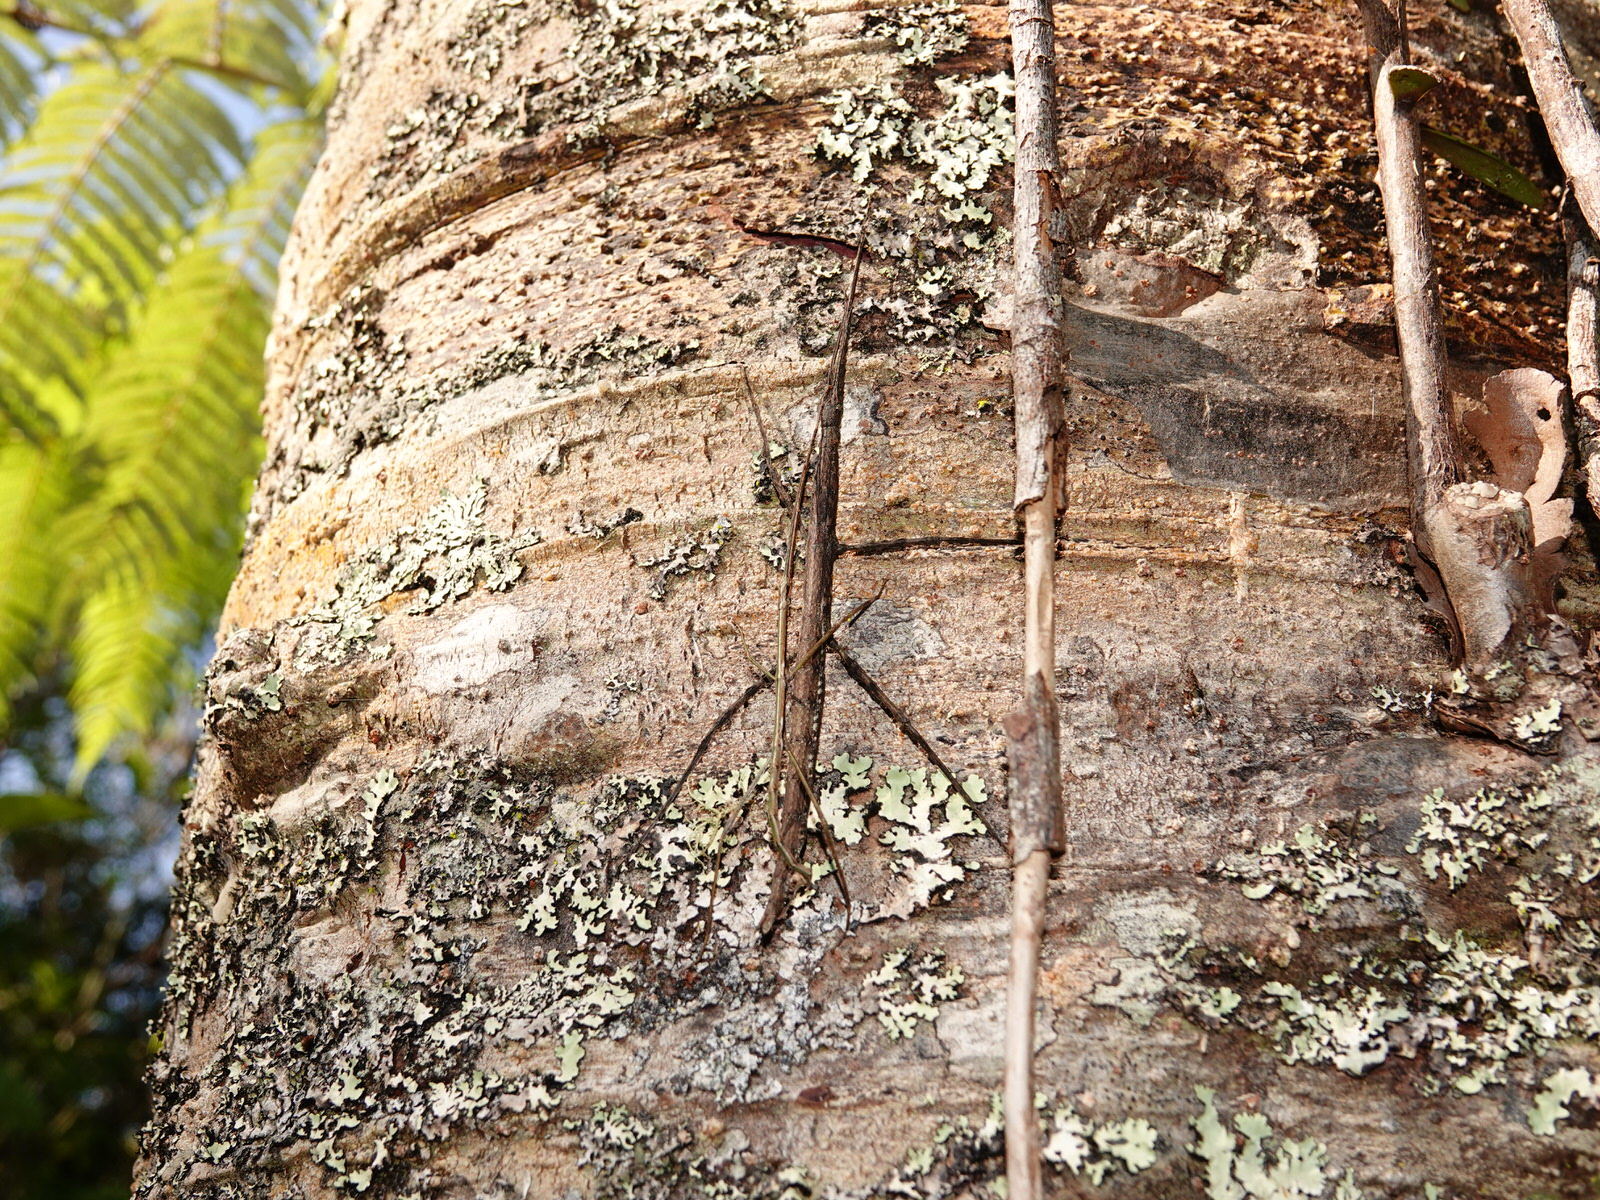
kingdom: Animalia
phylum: Arthropoda
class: Insecta
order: Phasmida
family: Phasmatidae
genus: Clitarchus
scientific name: Clitarchus hookeri
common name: Smooth stick insect
